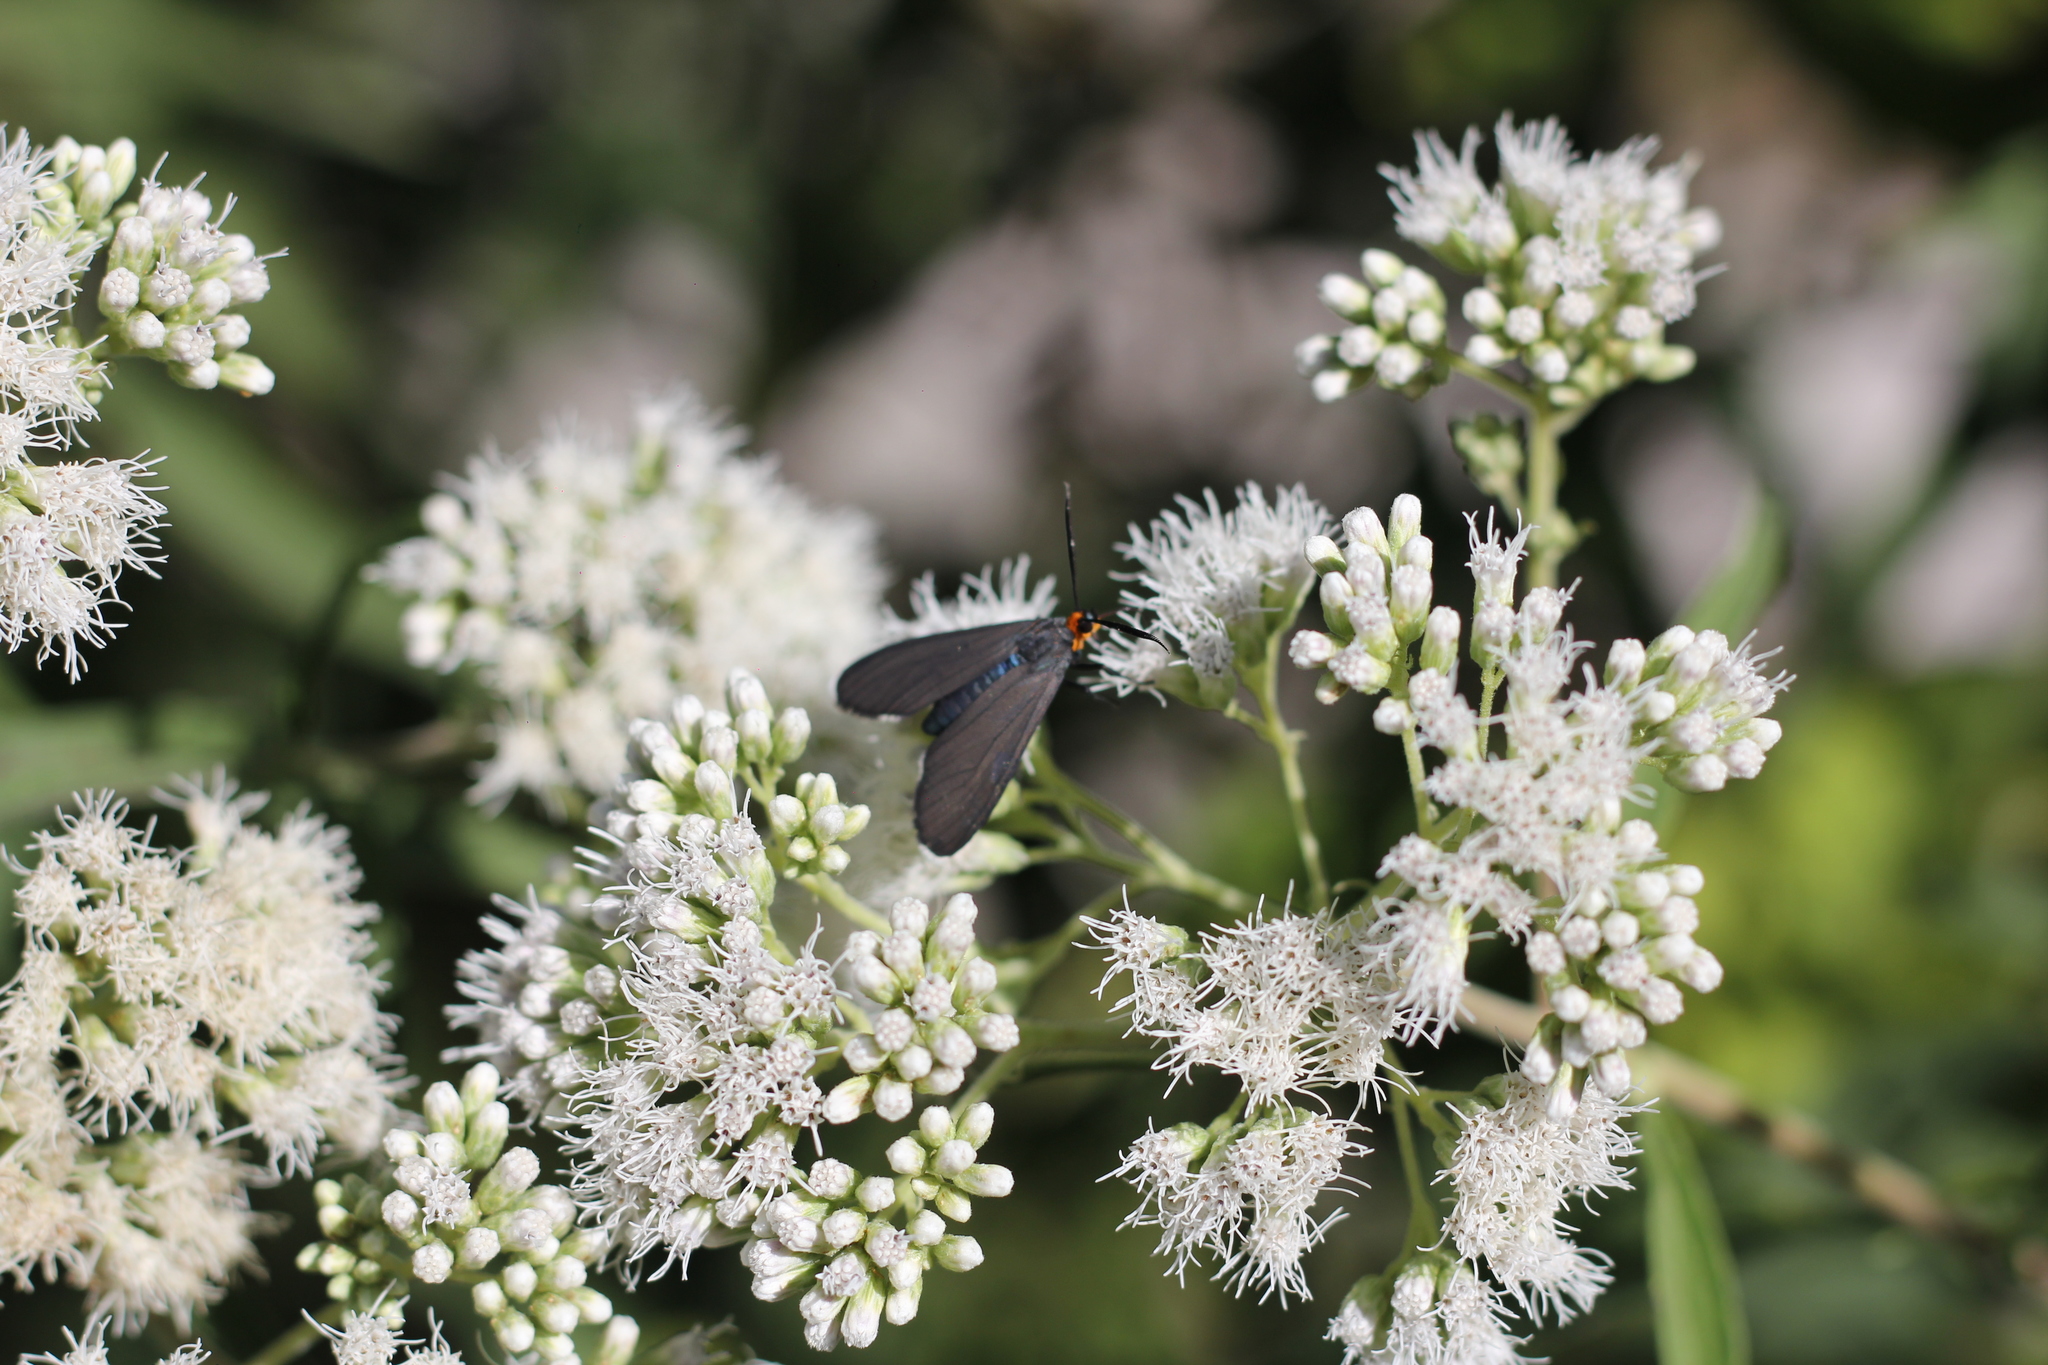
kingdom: Animalia
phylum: Arthropoda
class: Insecta
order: Lepidoptera
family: Erebidae
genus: Ctenucha
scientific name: Ctenucha rubriceps
